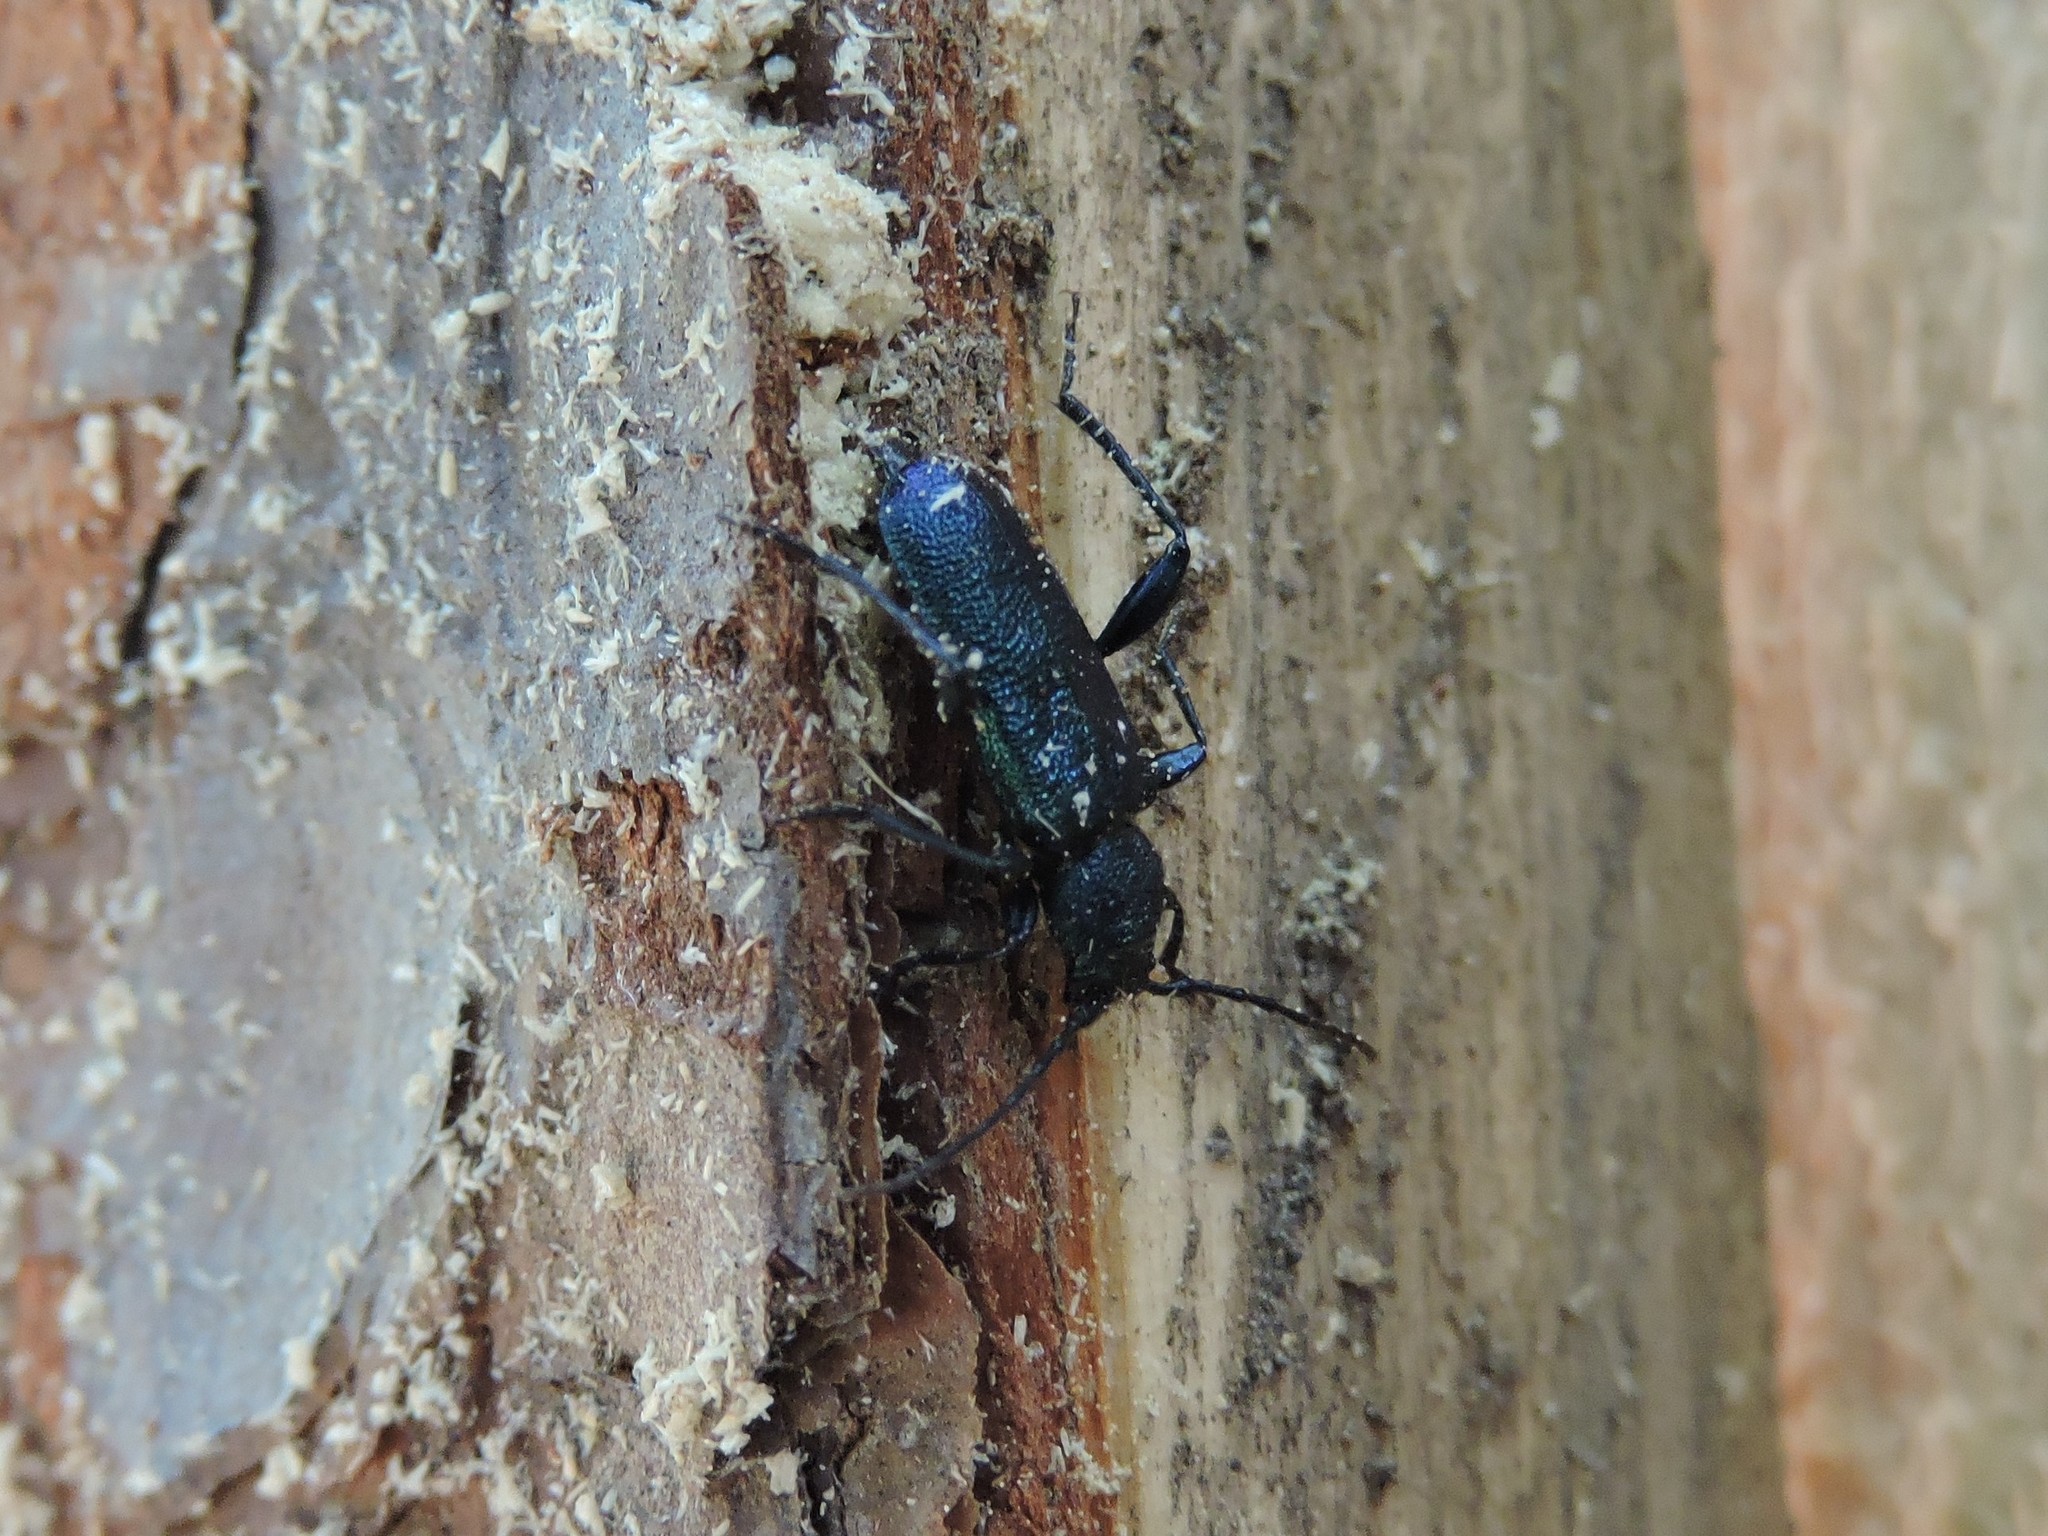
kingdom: Animalia
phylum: Arthropoda
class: Insecta
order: Coleoptera
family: Cerambycidae
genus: Callidium
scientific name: Callidium violaceum
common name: Violet tanbark beetle
